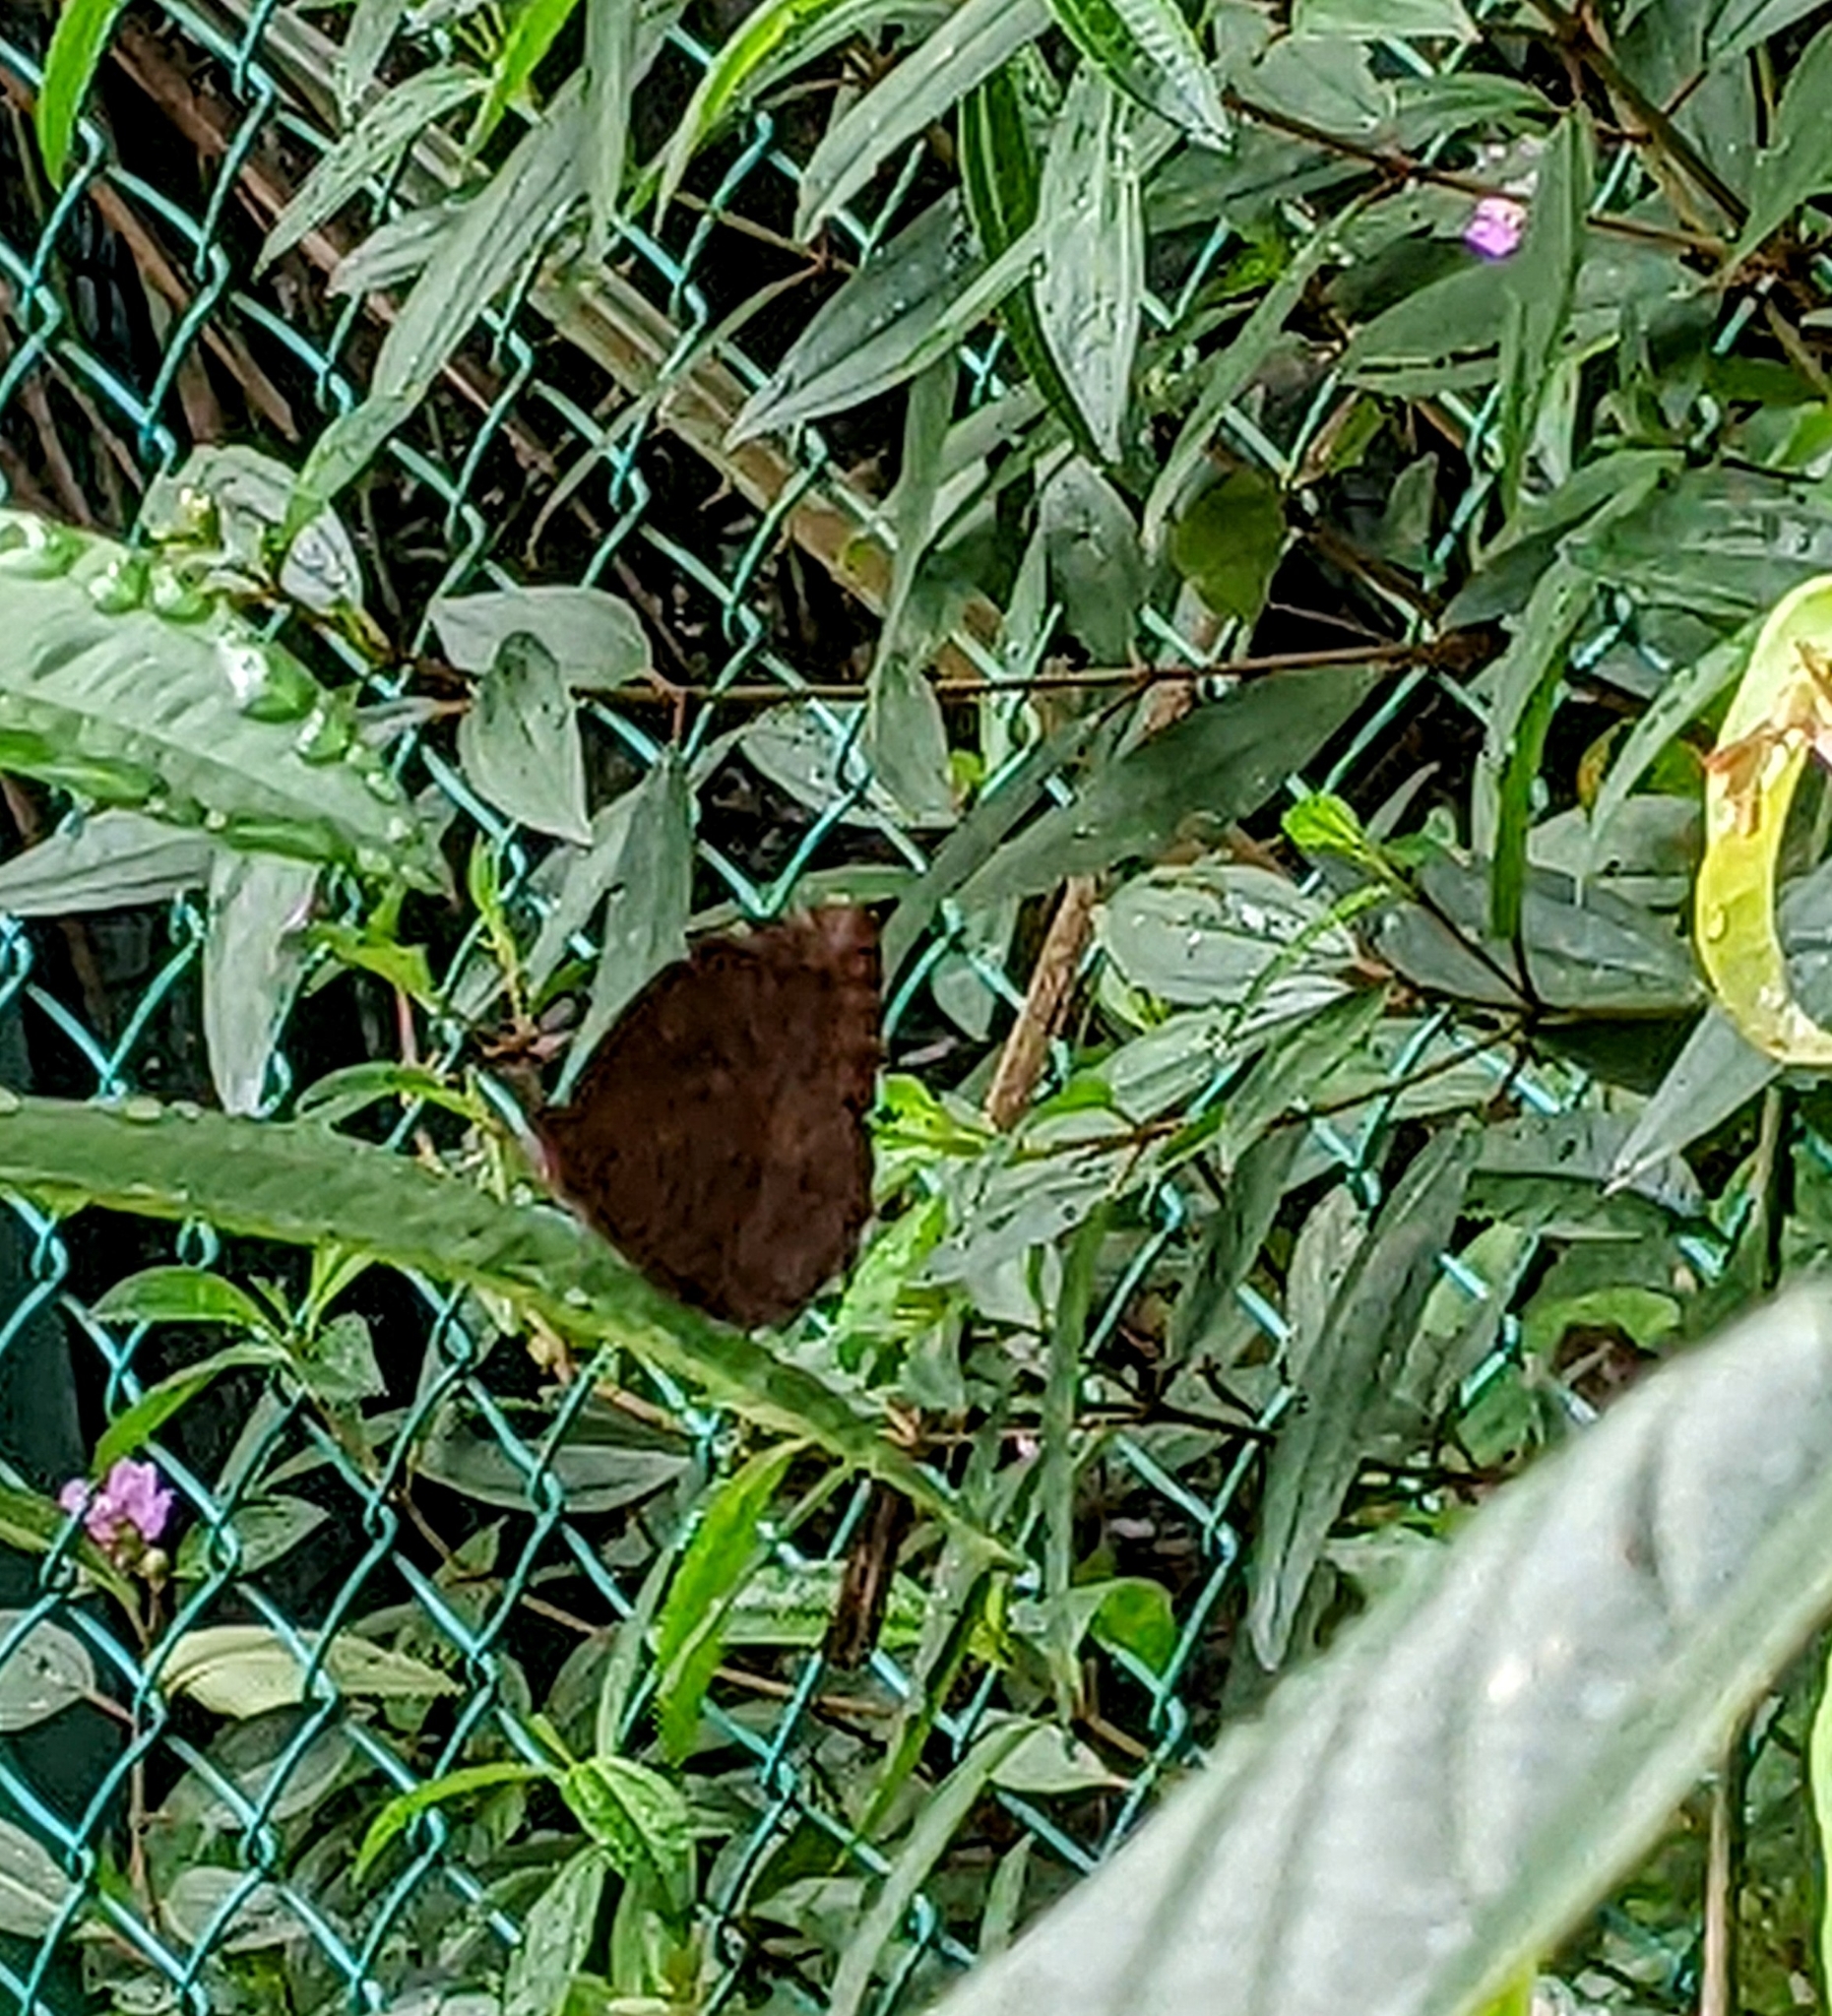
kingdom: Animalia
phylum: Arthropoda
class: Insecta
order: Lepidoptera
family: Nymphalidae
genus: Elymnias
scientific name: Elymnias hypermnestra
